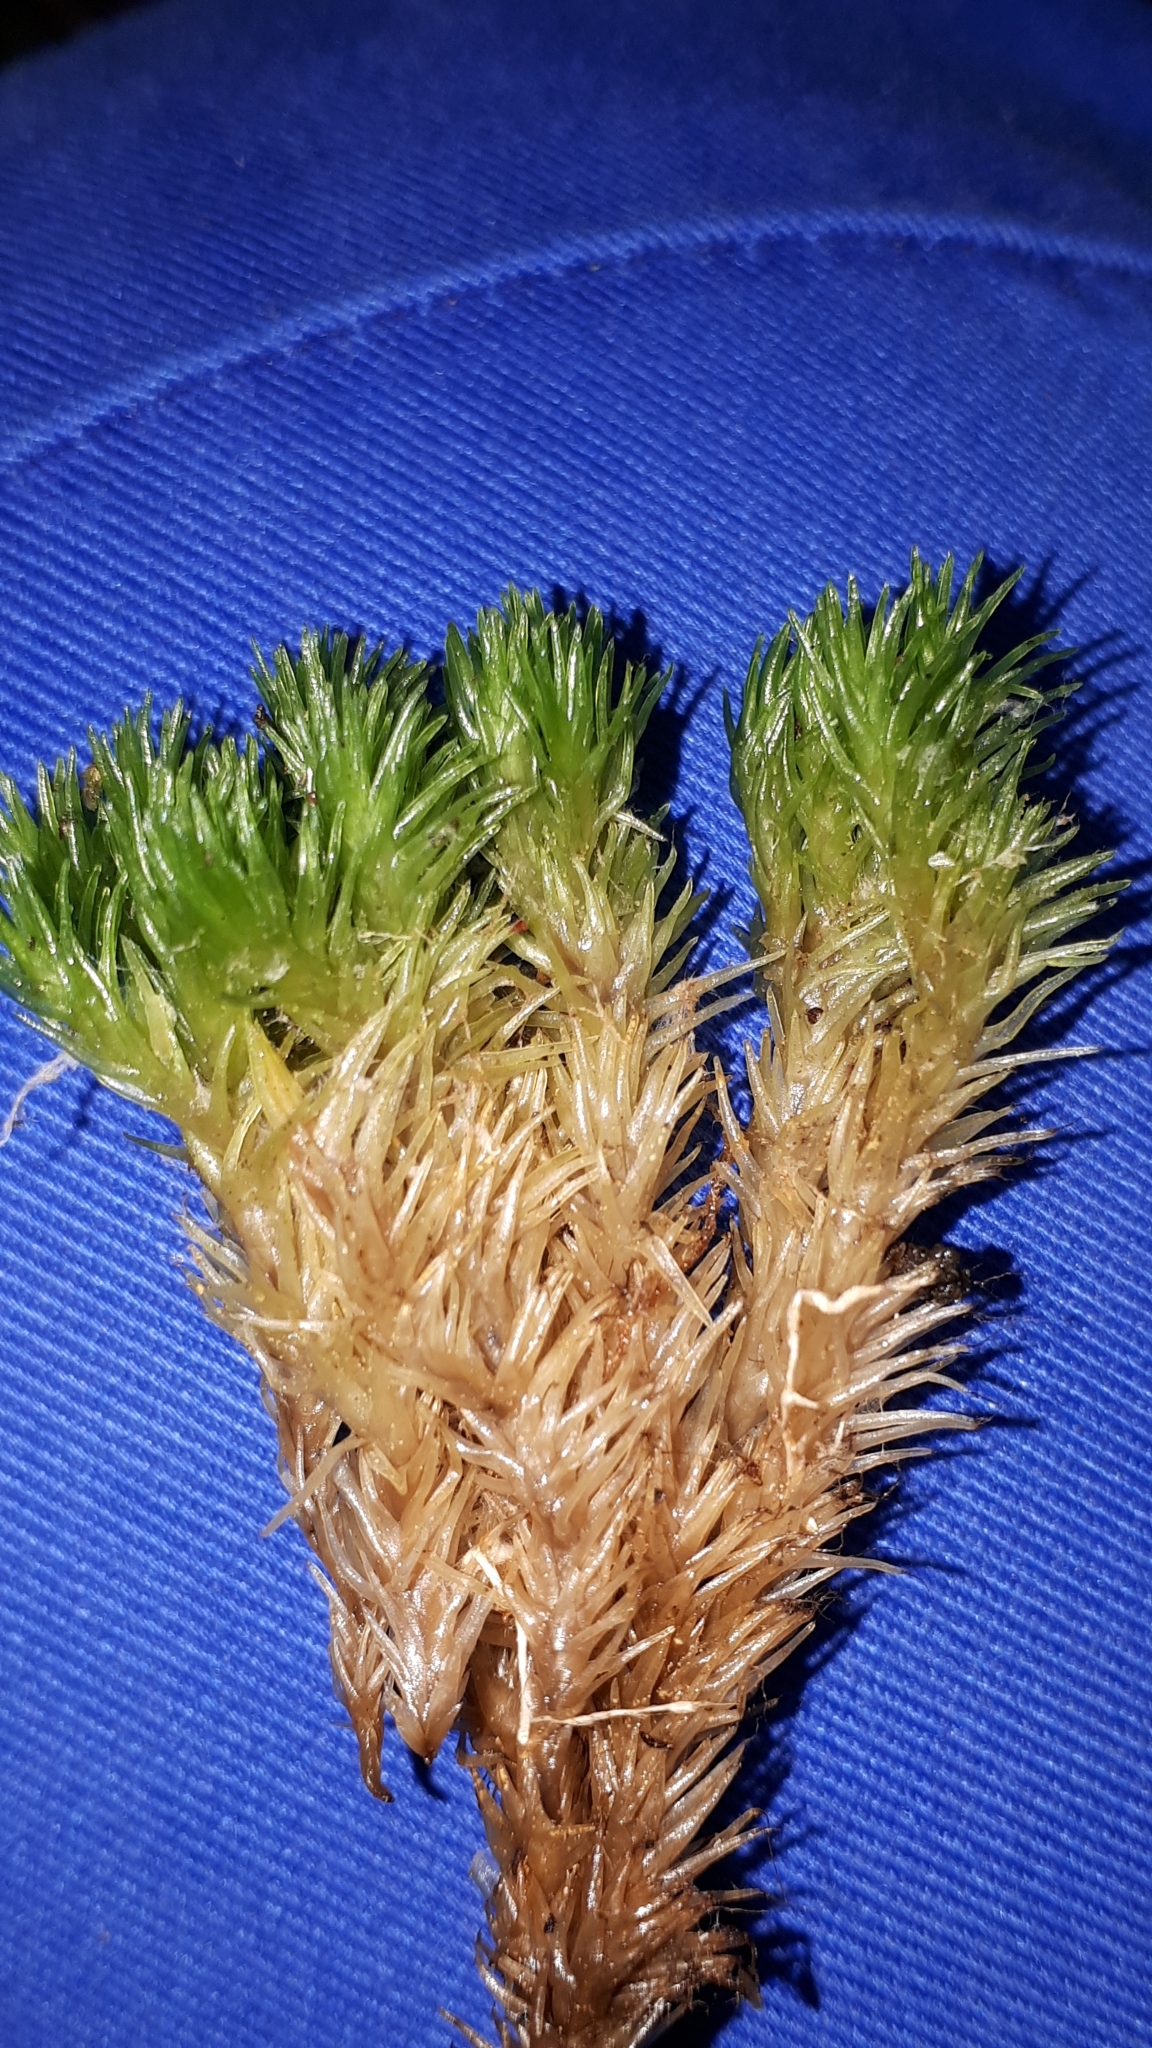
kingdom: Plantae
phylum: Bryophyta
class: Bryopsida
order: Dicranales
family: Leucobryaceae
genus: Leucobryum
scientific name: Leucobryum glaucum
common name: Large white-moss
